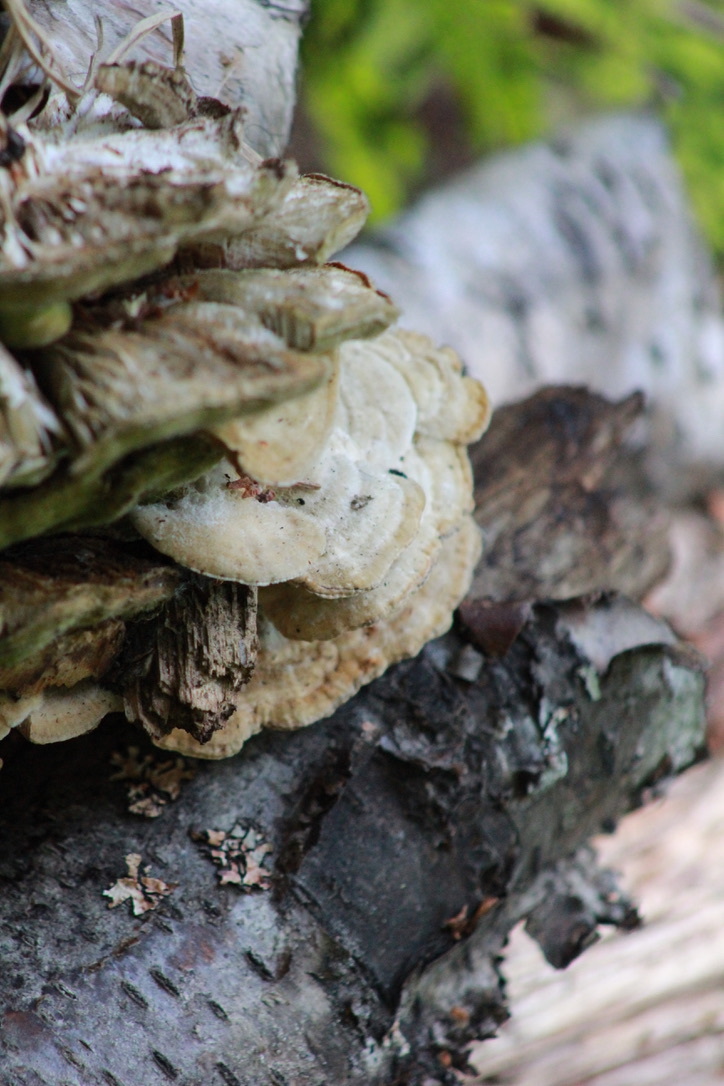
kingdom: Fungi
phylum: Basidiomycota
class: Agaricomycetes
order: Polyporales
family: Polyporaceae
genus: Lenzites
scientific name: Lenzites betulinus
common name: Birch mazegill
